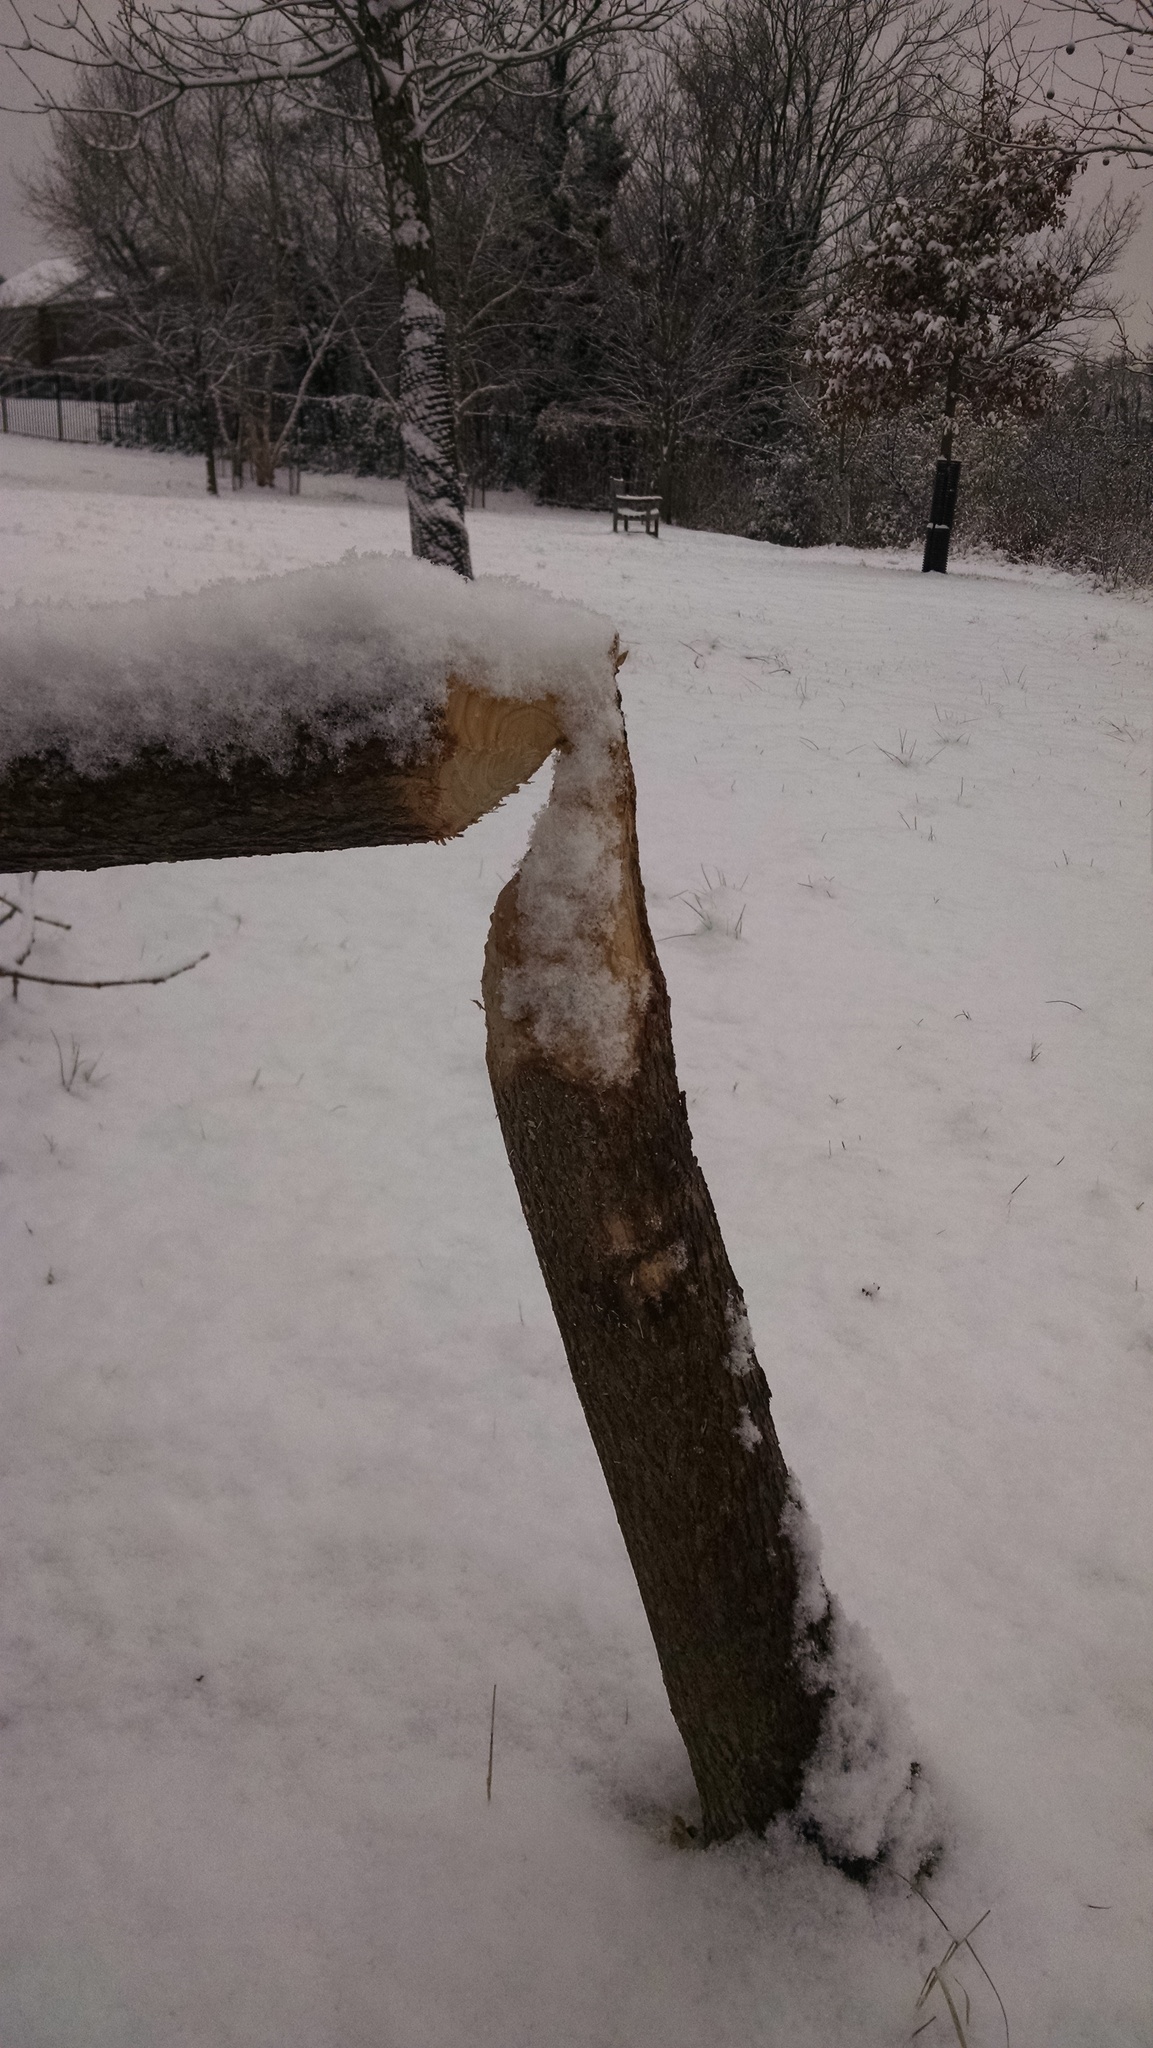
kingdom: Animalia
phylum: Chordata
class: Mammalia
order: Rodentia
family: Castoridae
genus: Castor
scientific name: Castor canadensis
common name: American beaver
